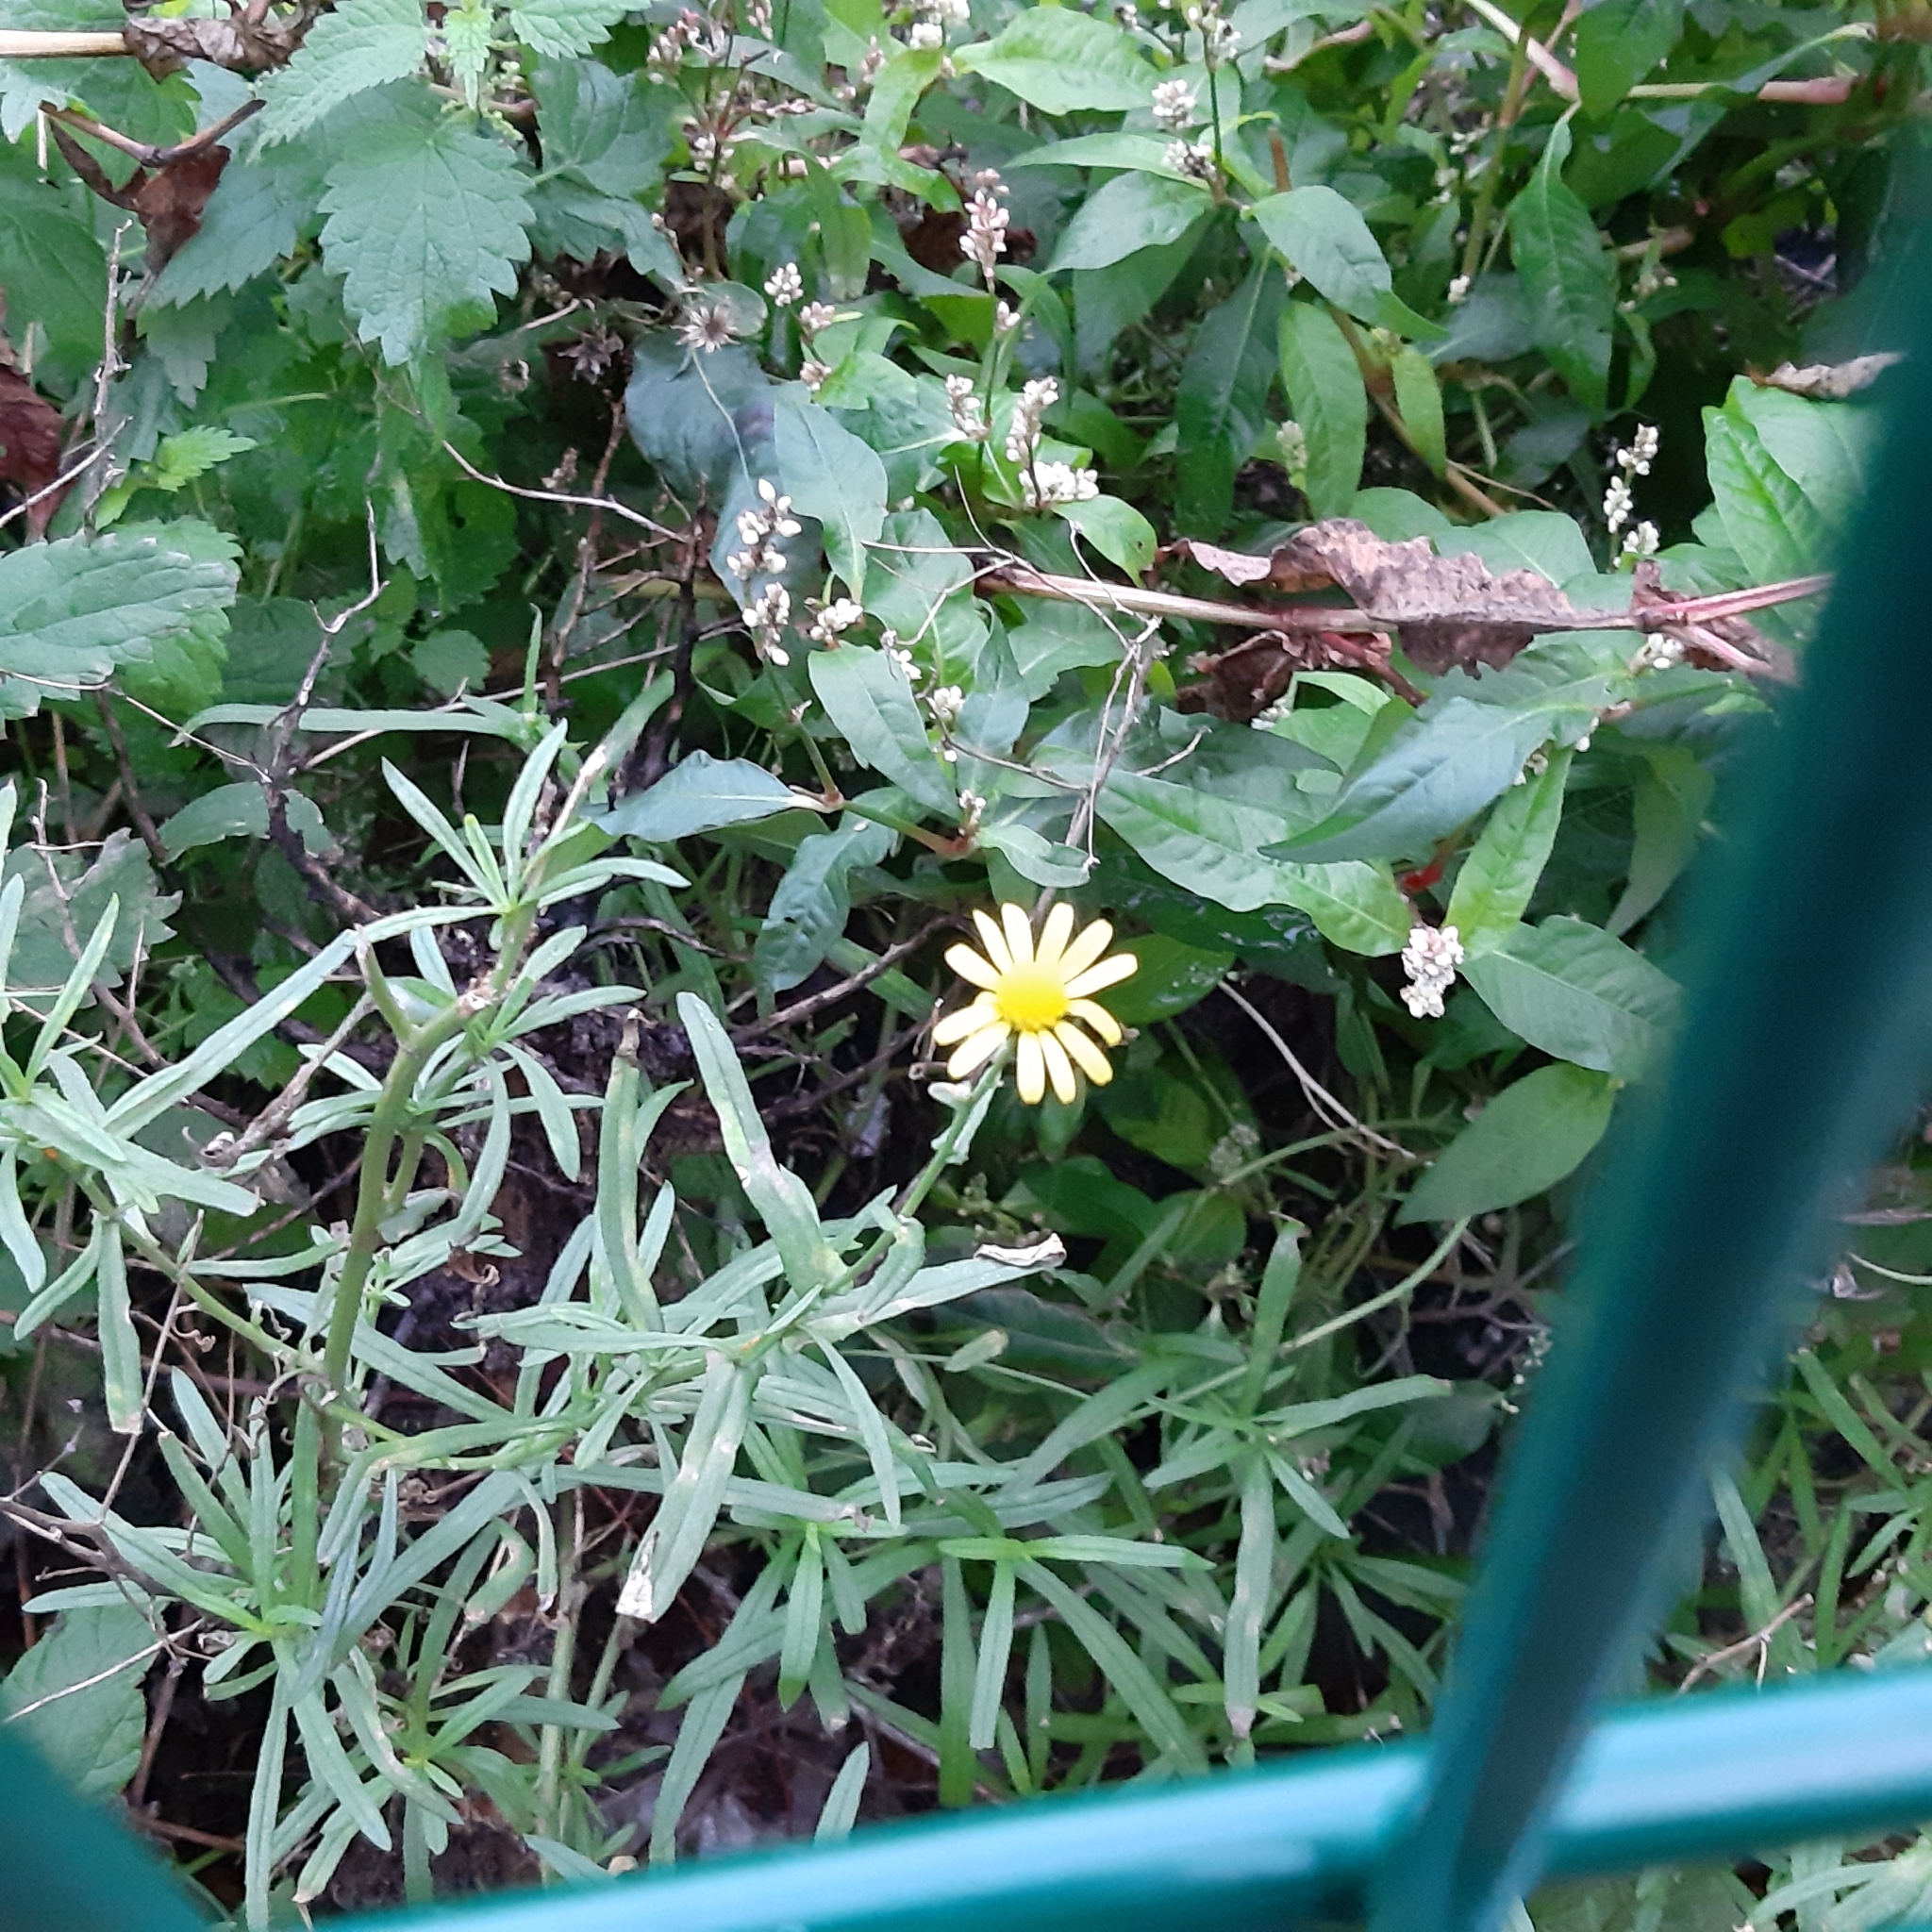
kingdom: Plantae
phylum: Tracheophyta
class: Magnoliopsida
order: Asterales
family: Asteraceae
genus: Senecio
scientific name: Senecio inaequidens
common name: Narrow-leaved ragwort
